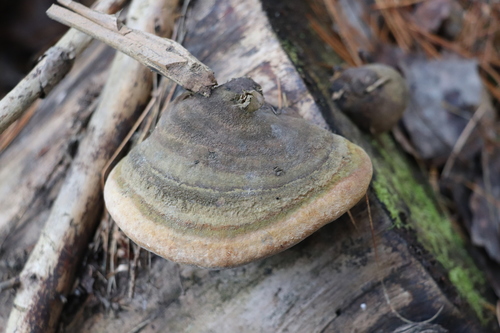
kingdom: Fungi
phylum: Basidiomycota
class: Agaricomycetes
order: Hymenochaetales
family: Hymenochaetaceae
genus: Phellinus
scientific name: Phellinus hartigii
